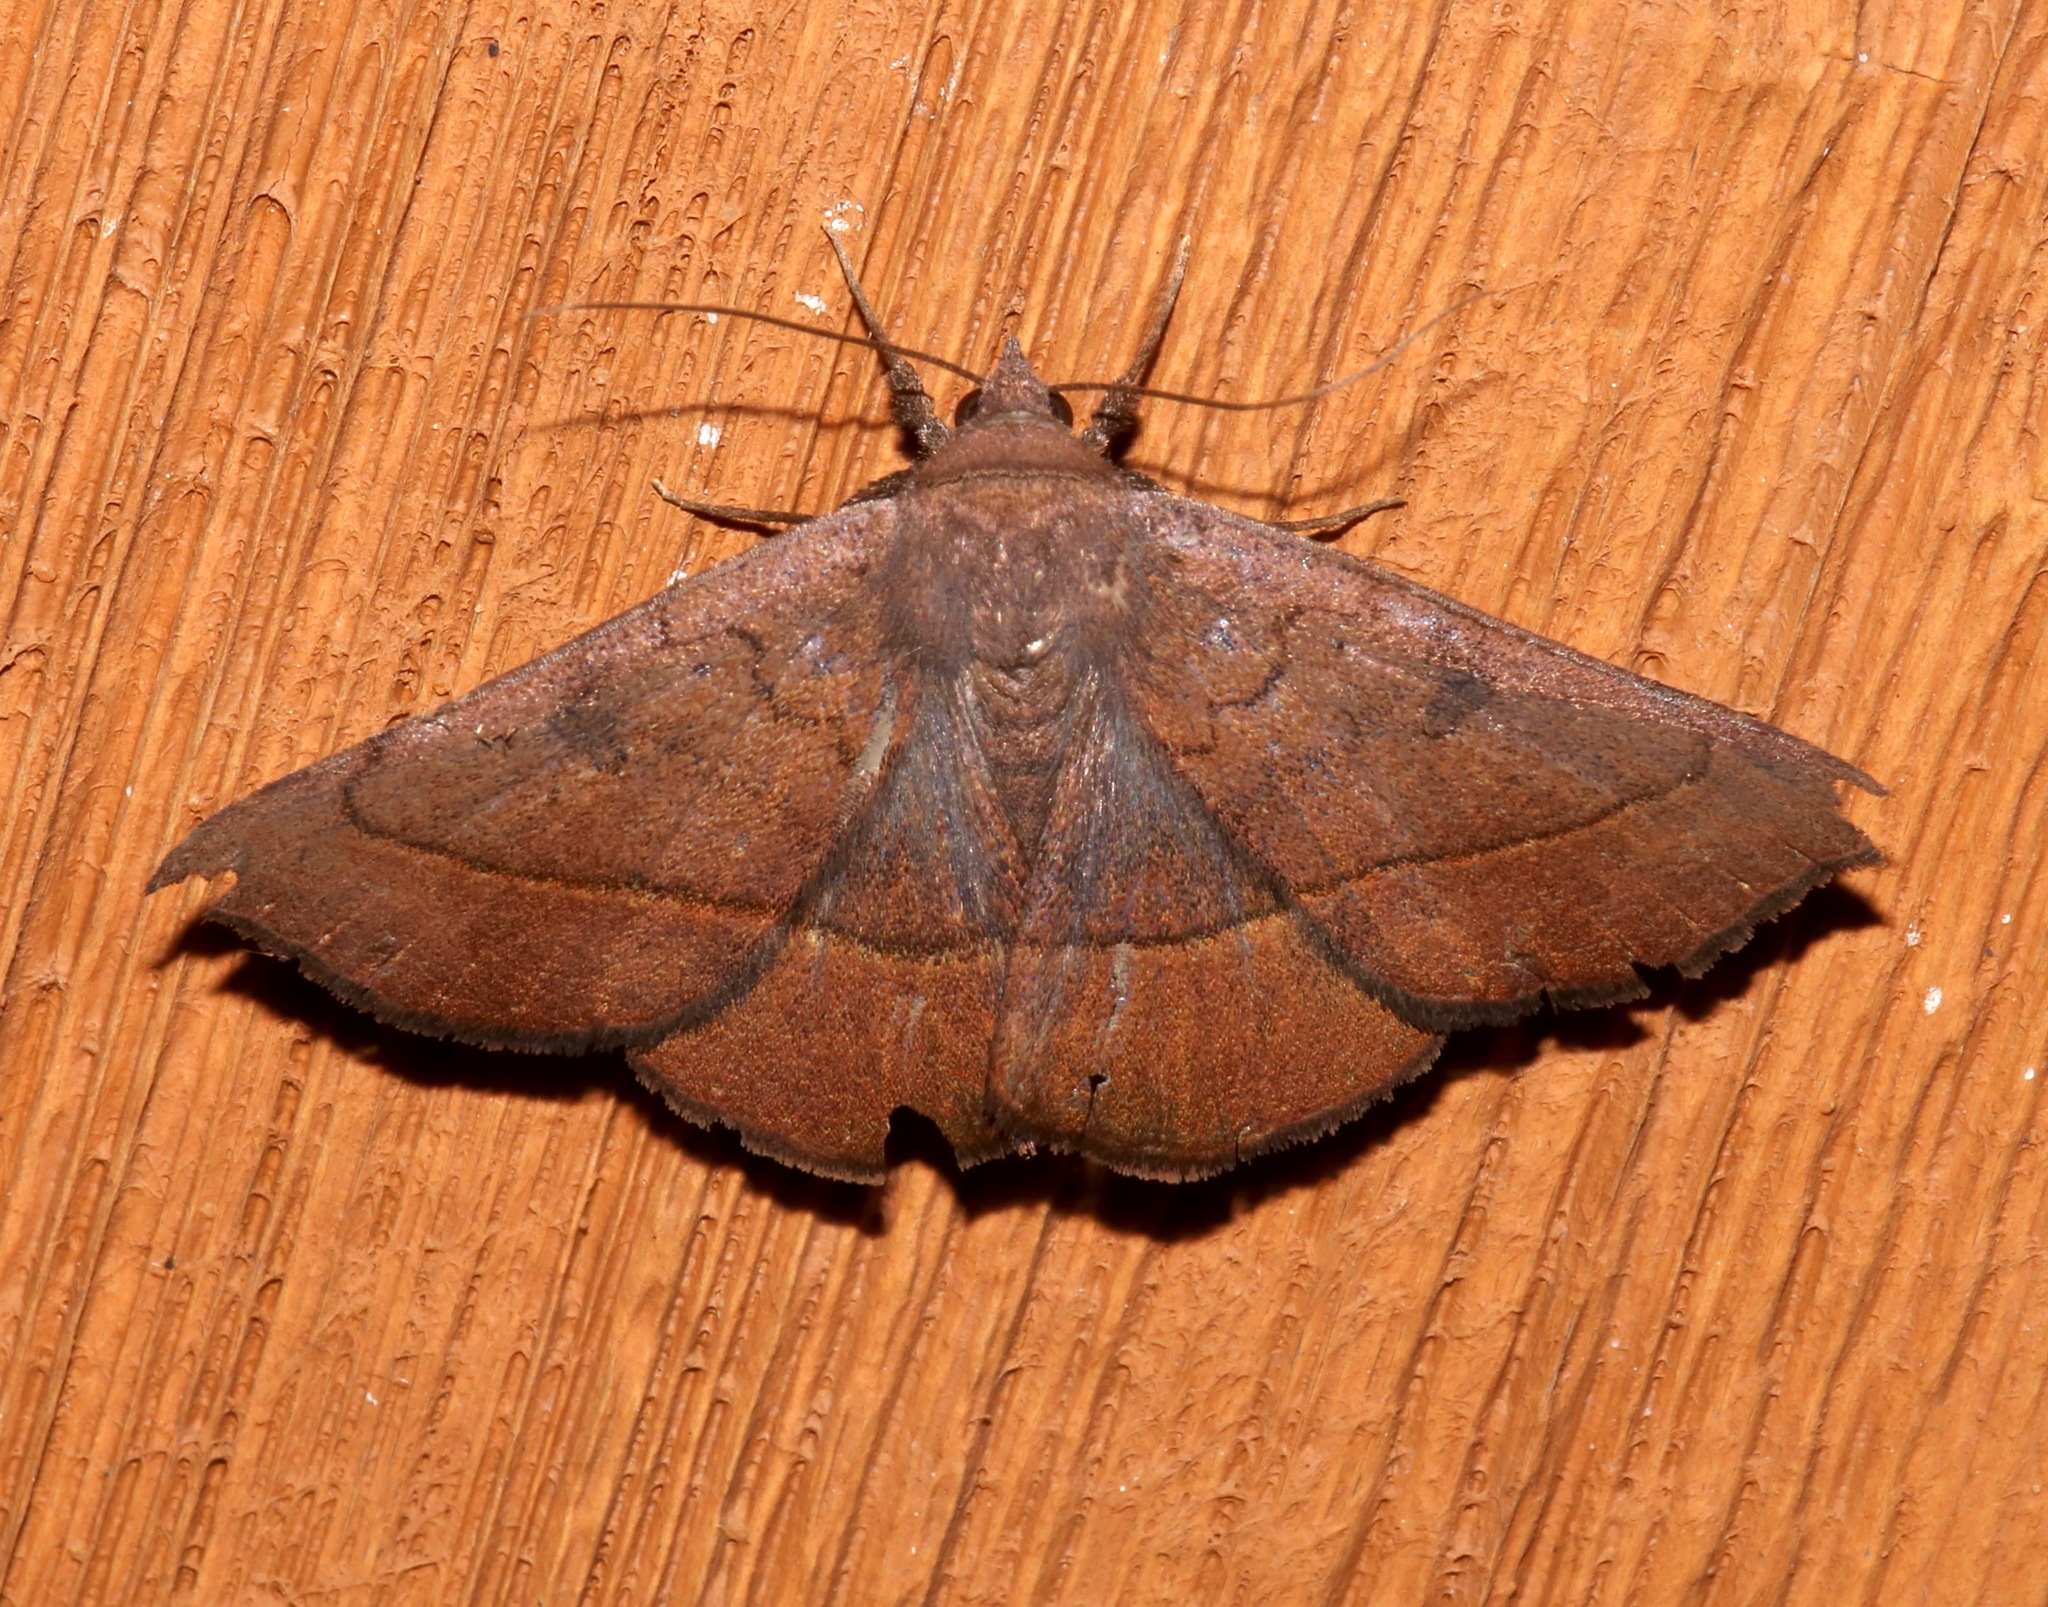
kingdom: Animalia
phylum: Arthropoda
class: Insecta
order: Lepidoptera
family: Erebidae
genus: Epidromia
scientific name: Epidromia rotundata
